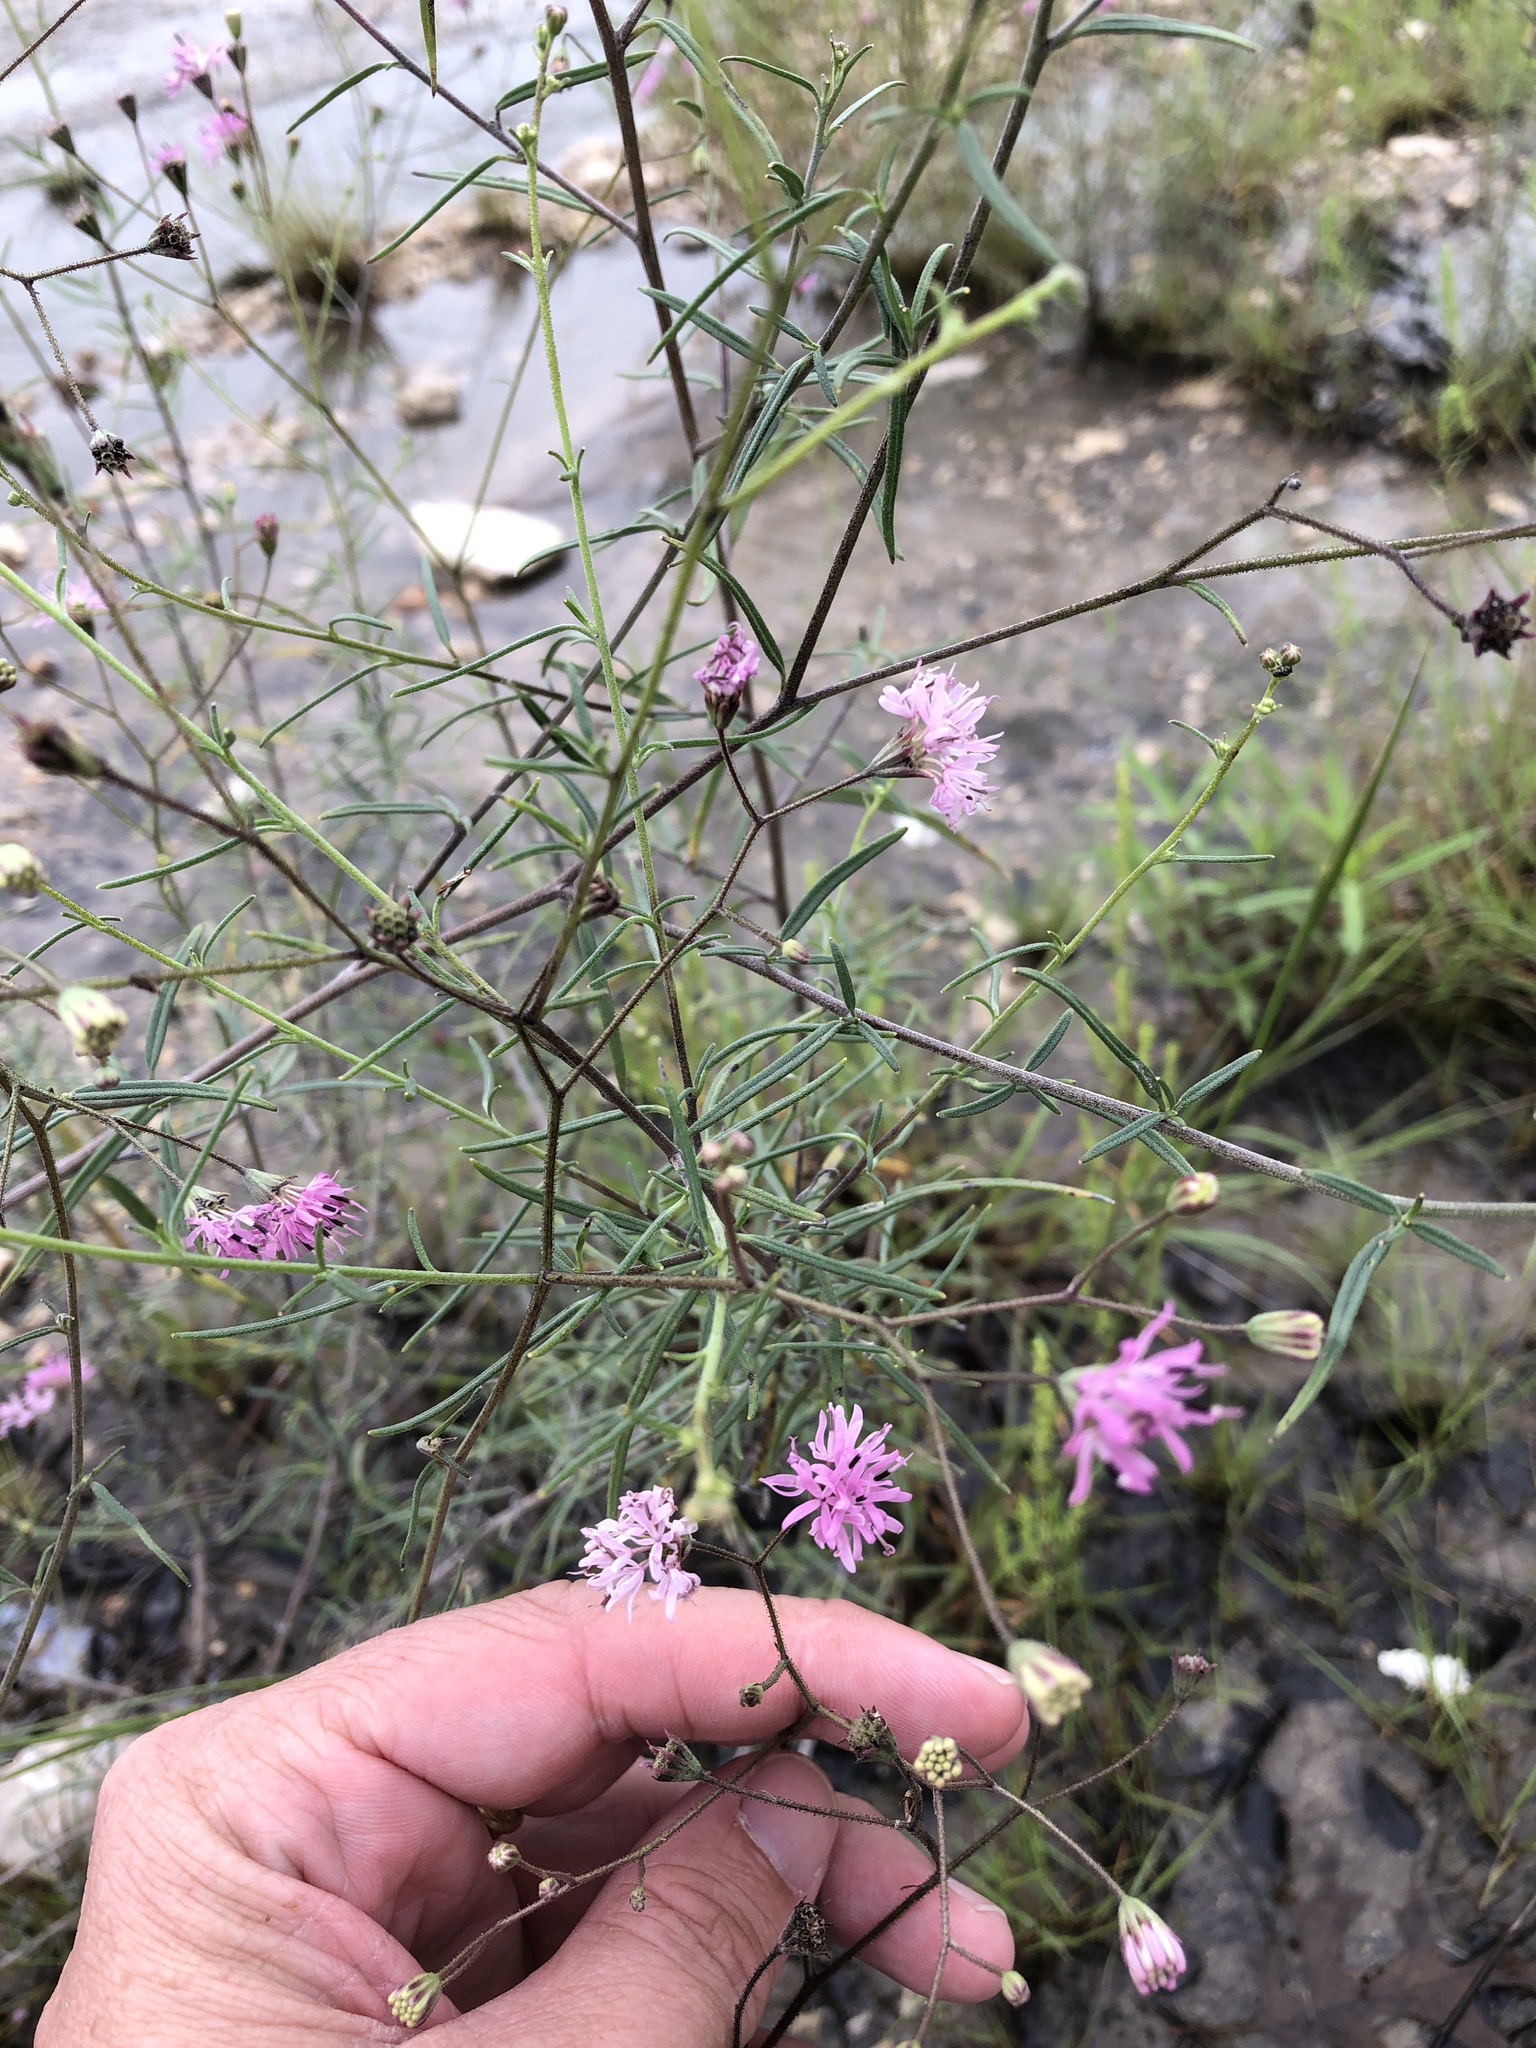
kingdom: Plantae
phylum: Tracheophyta
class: Magnoliopsida
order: Asterales
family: Asteraceae
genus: Palafoxia
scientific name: Palafoxia callosa
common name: Small palafox
